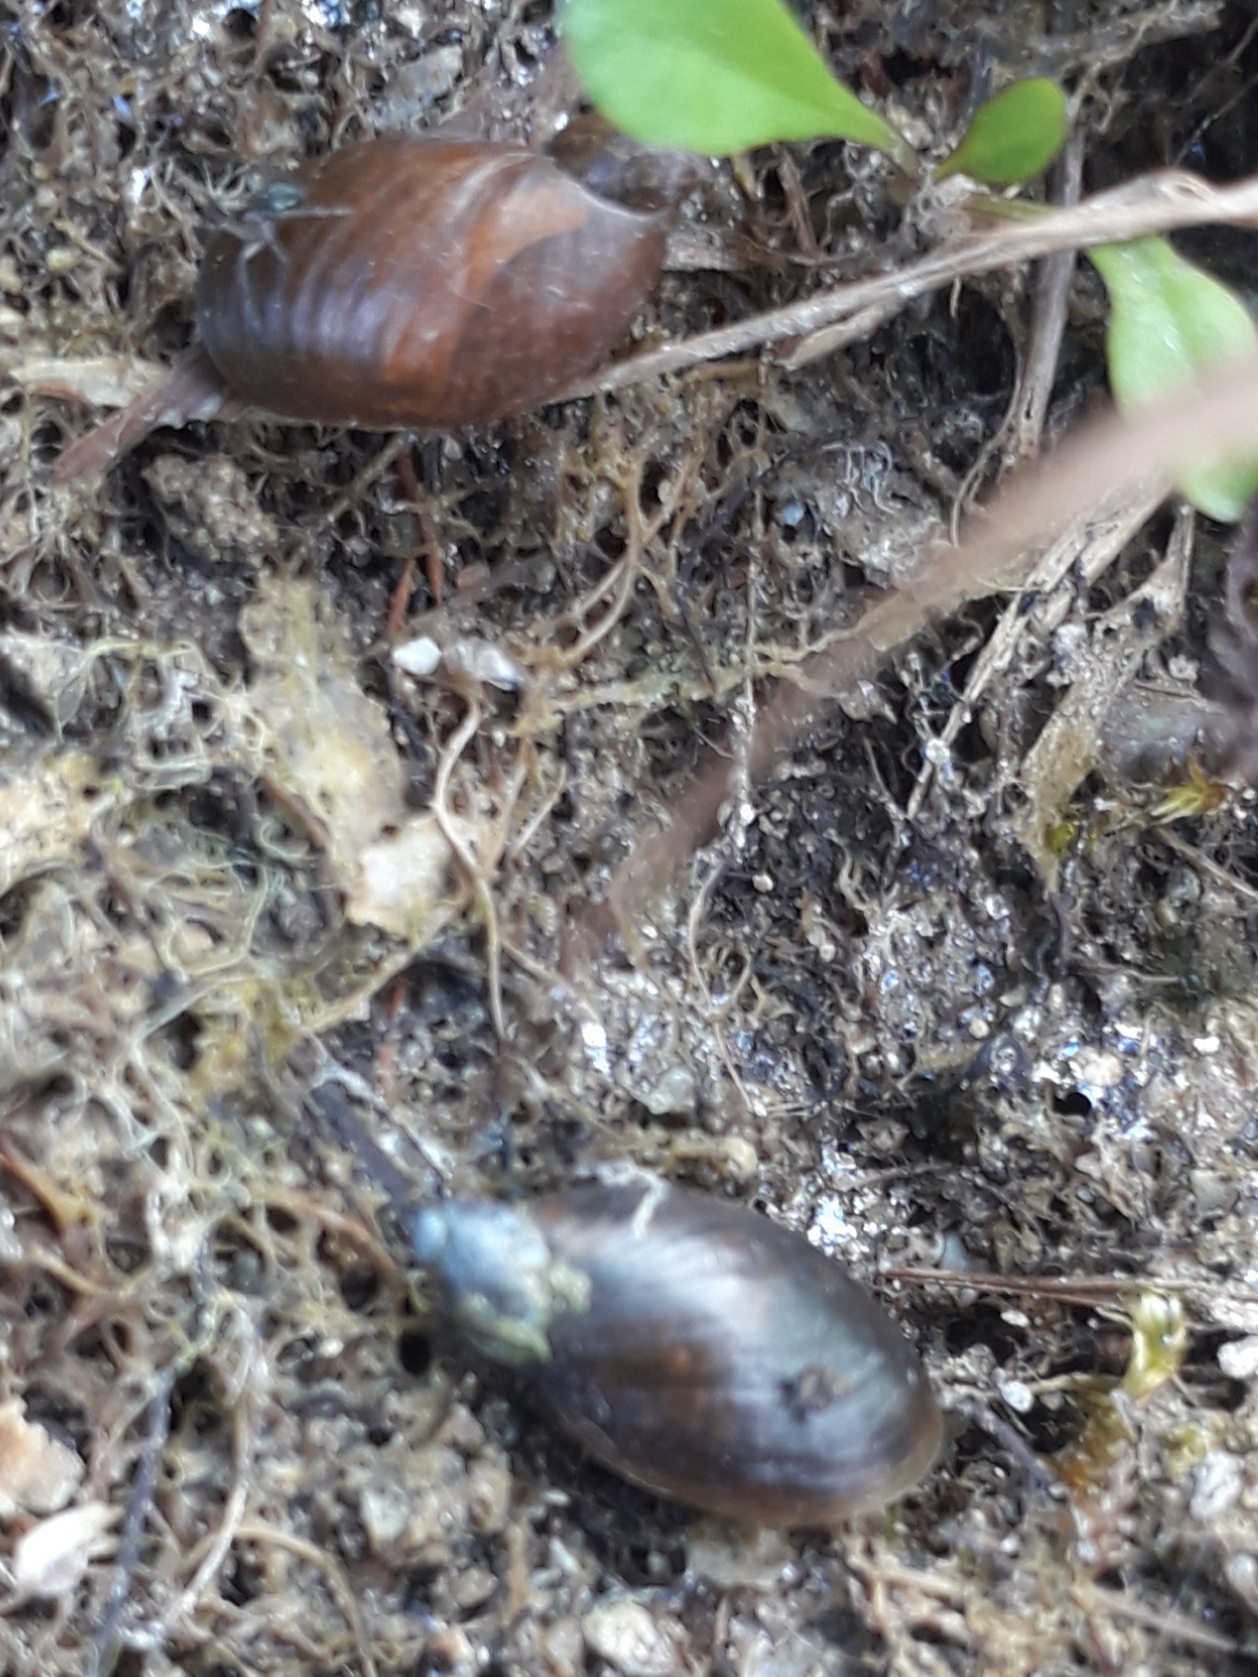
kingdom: Animalia
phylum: Mollusca
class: Gastropoda
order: Stylommatophora
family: Succineidae
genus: Oxyloma
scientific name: Oxyloma elegans
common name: Pfeiffer's amber snail
